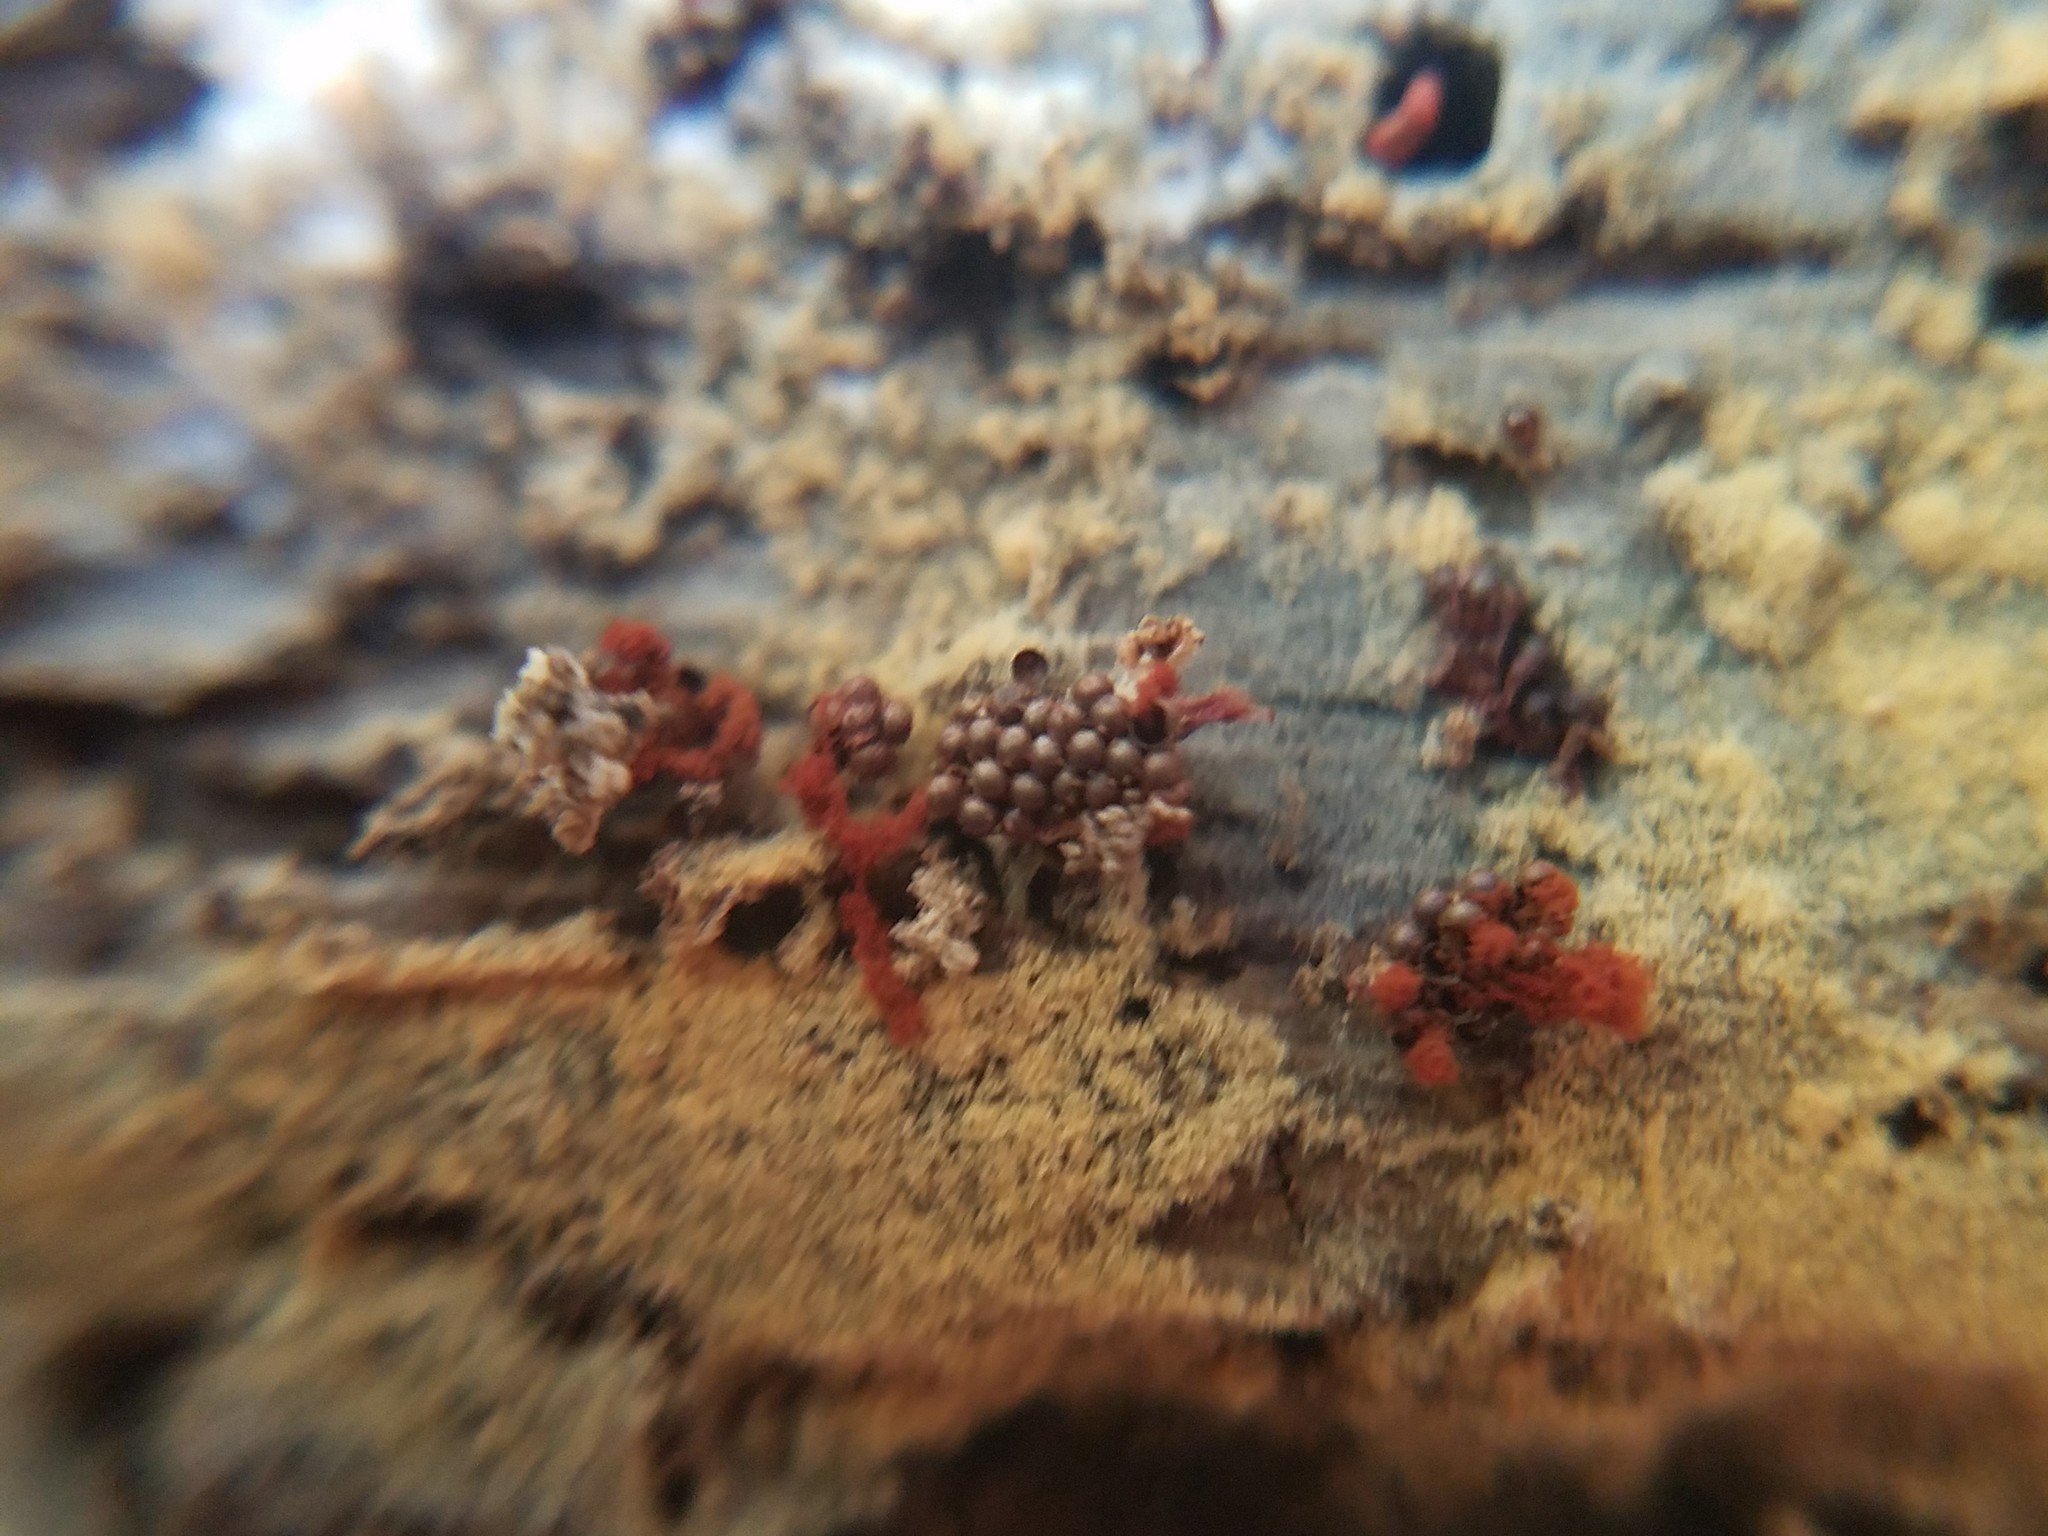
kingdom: Protozoa
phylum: Mycetozoa
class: Myxomycetes
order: Trichiales
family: Trichiaceae
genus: Metatrichia
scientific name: Metatrichia vesparia
